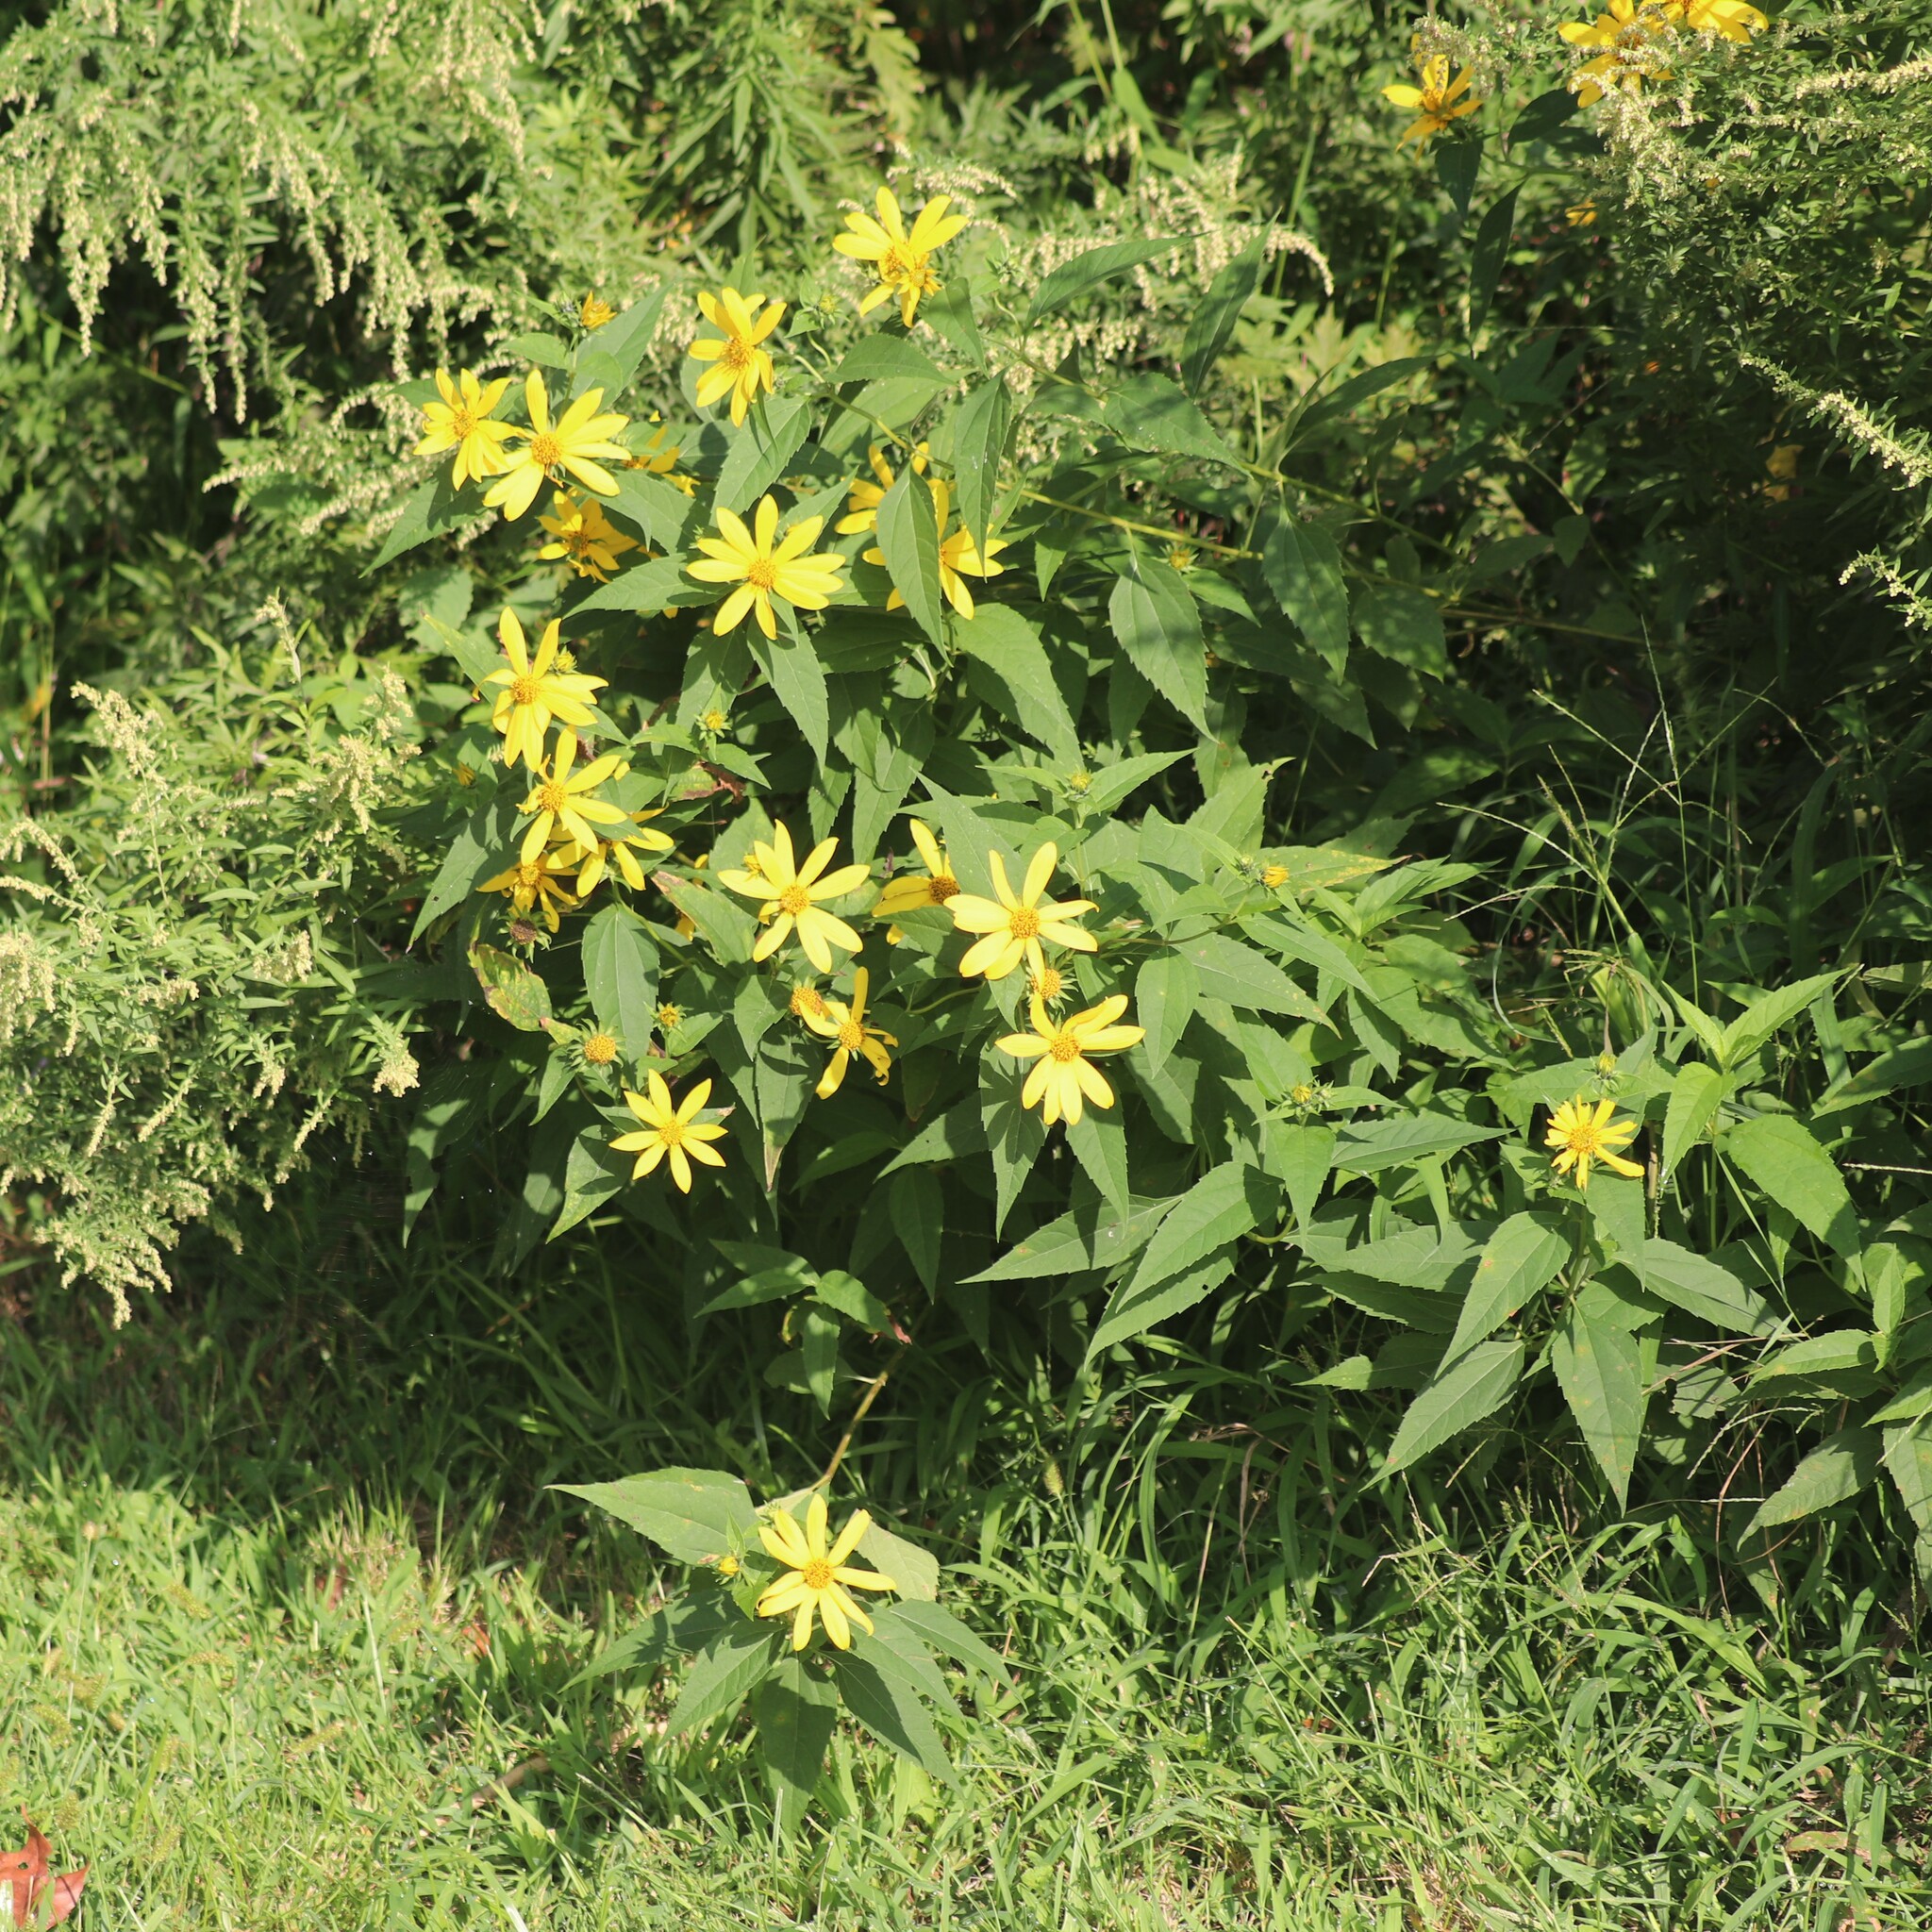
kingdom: Plantae
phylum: Tracheophyta
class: Magnoliopsida
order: Asterales
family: Asteraceae
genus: Helianthus
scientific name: Helianthus decapetalus
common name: Thin-leaved sunflower
